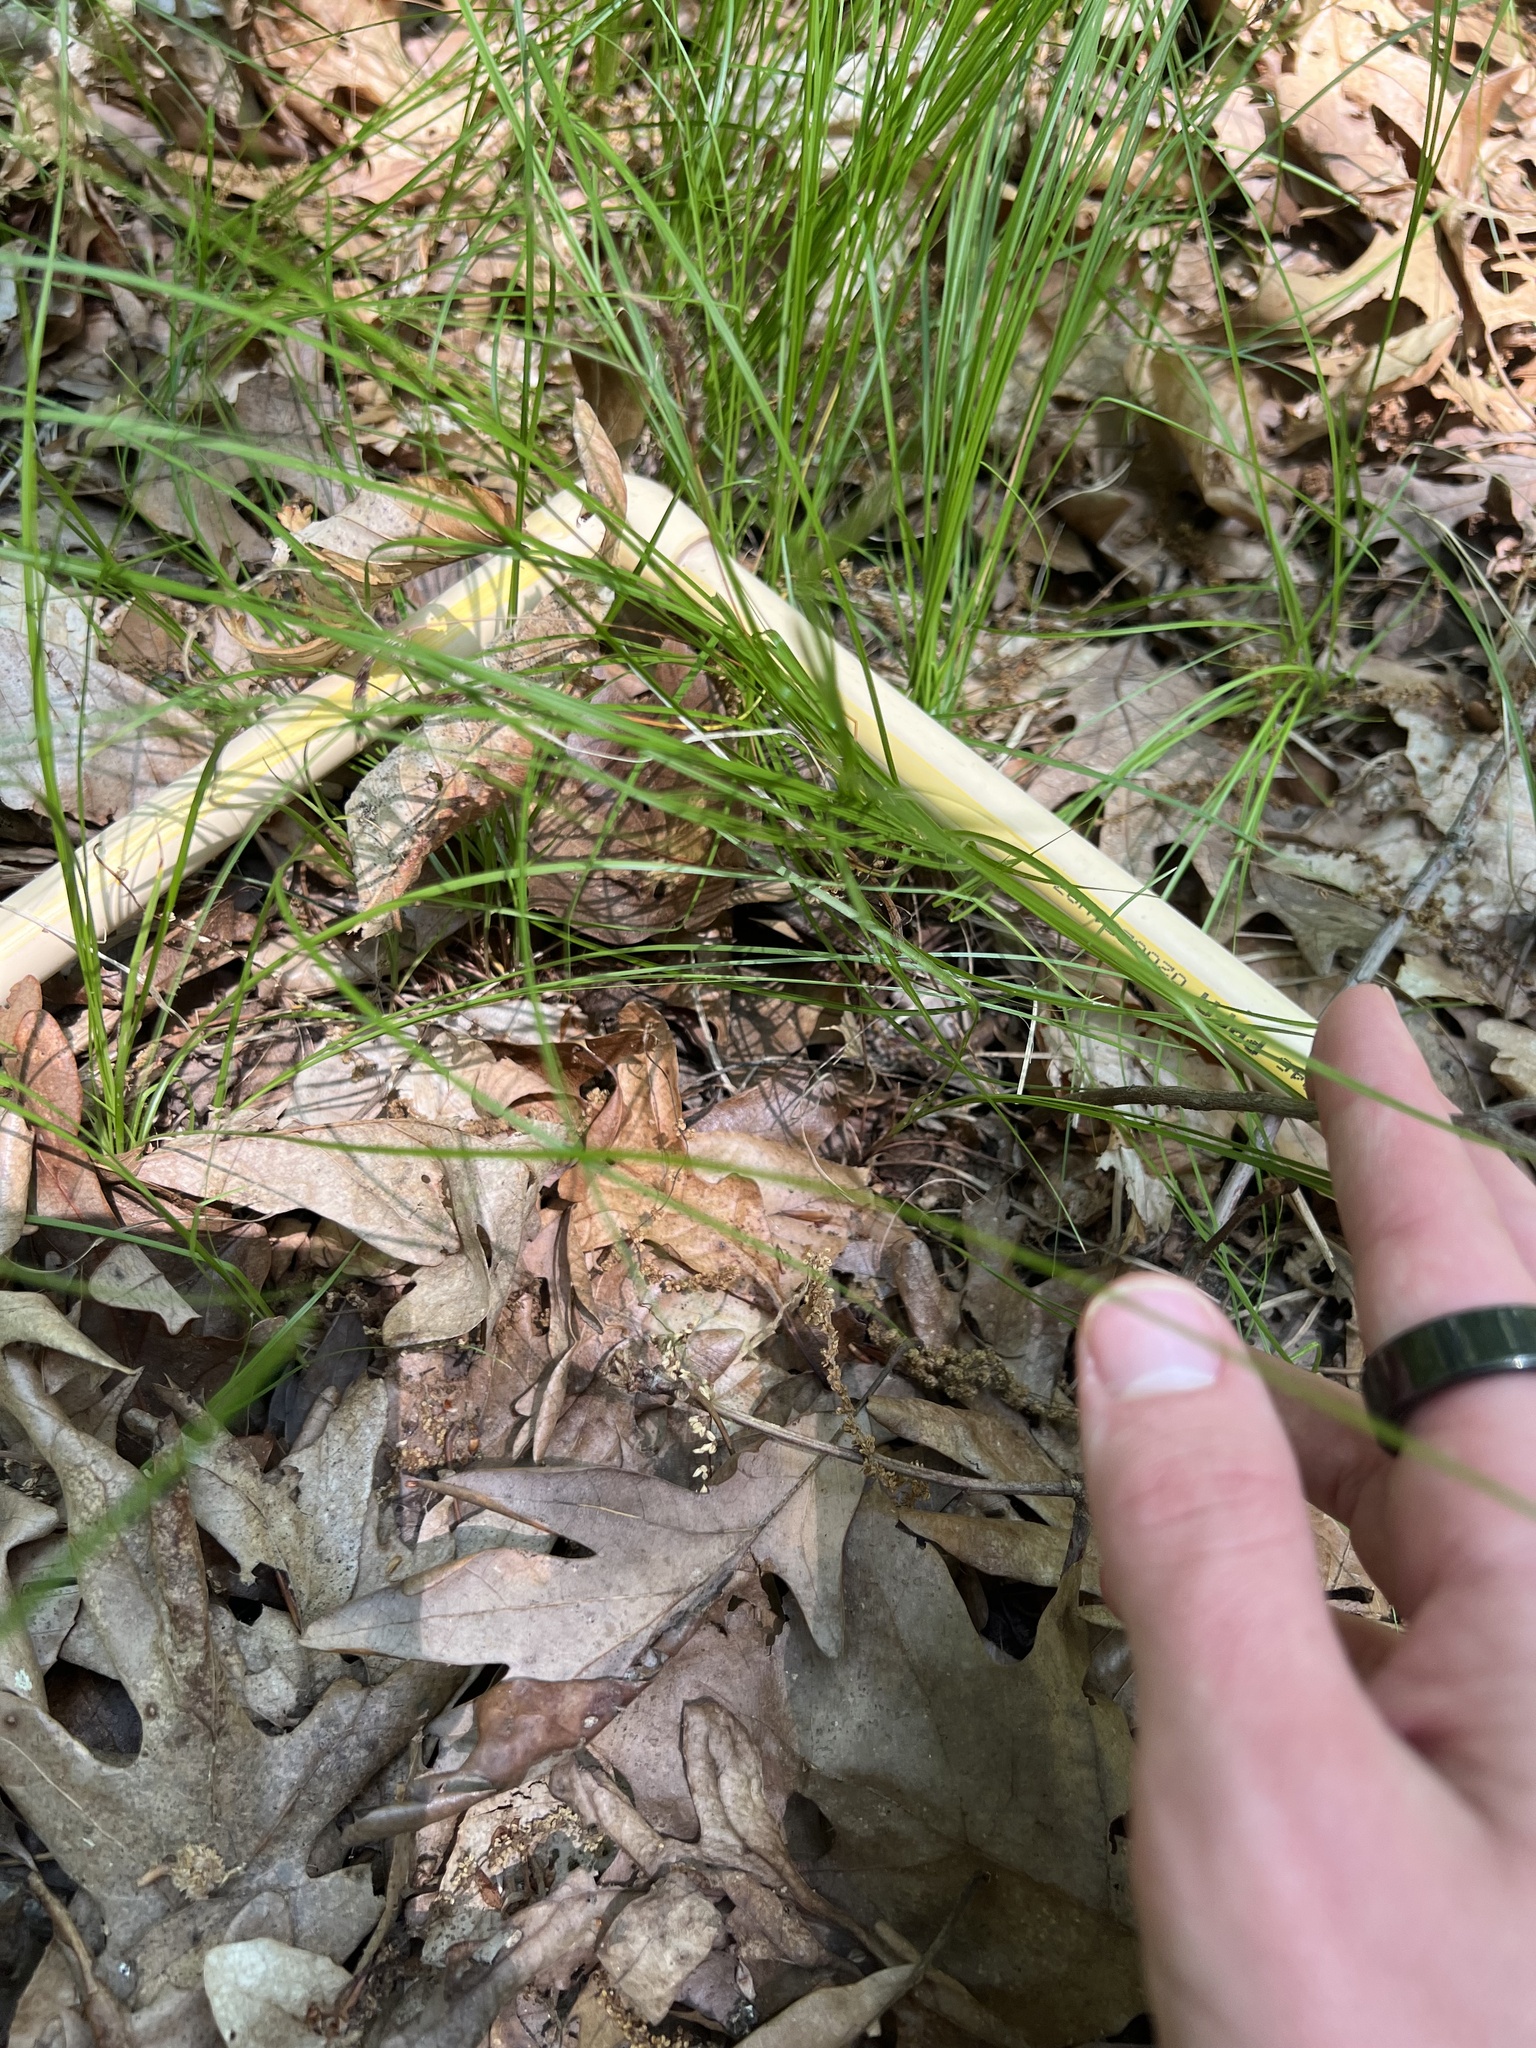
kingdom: Plantae
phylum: Tracheophyta
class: Liliopsida
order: Poales
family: Cyperaceae
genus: Carex
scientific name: Carex
